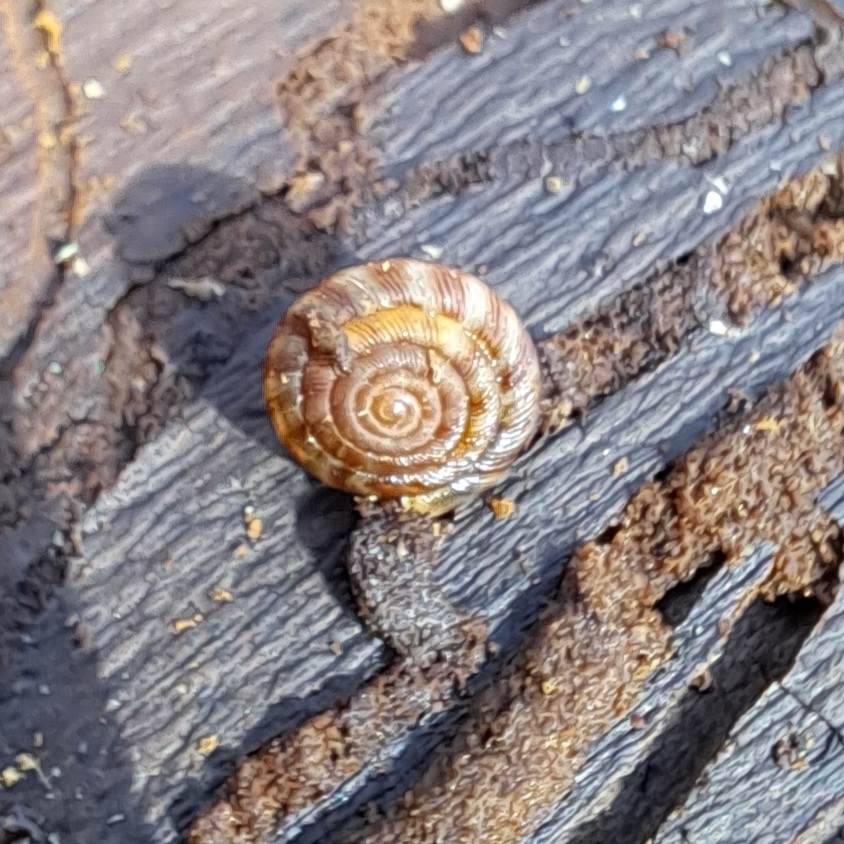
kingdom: Animalia
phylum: Mollusca
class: Gastropoda
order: Stylommatophora
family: Discidae
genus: Discus
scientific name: Discus rotundatus
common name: Rounded snail
